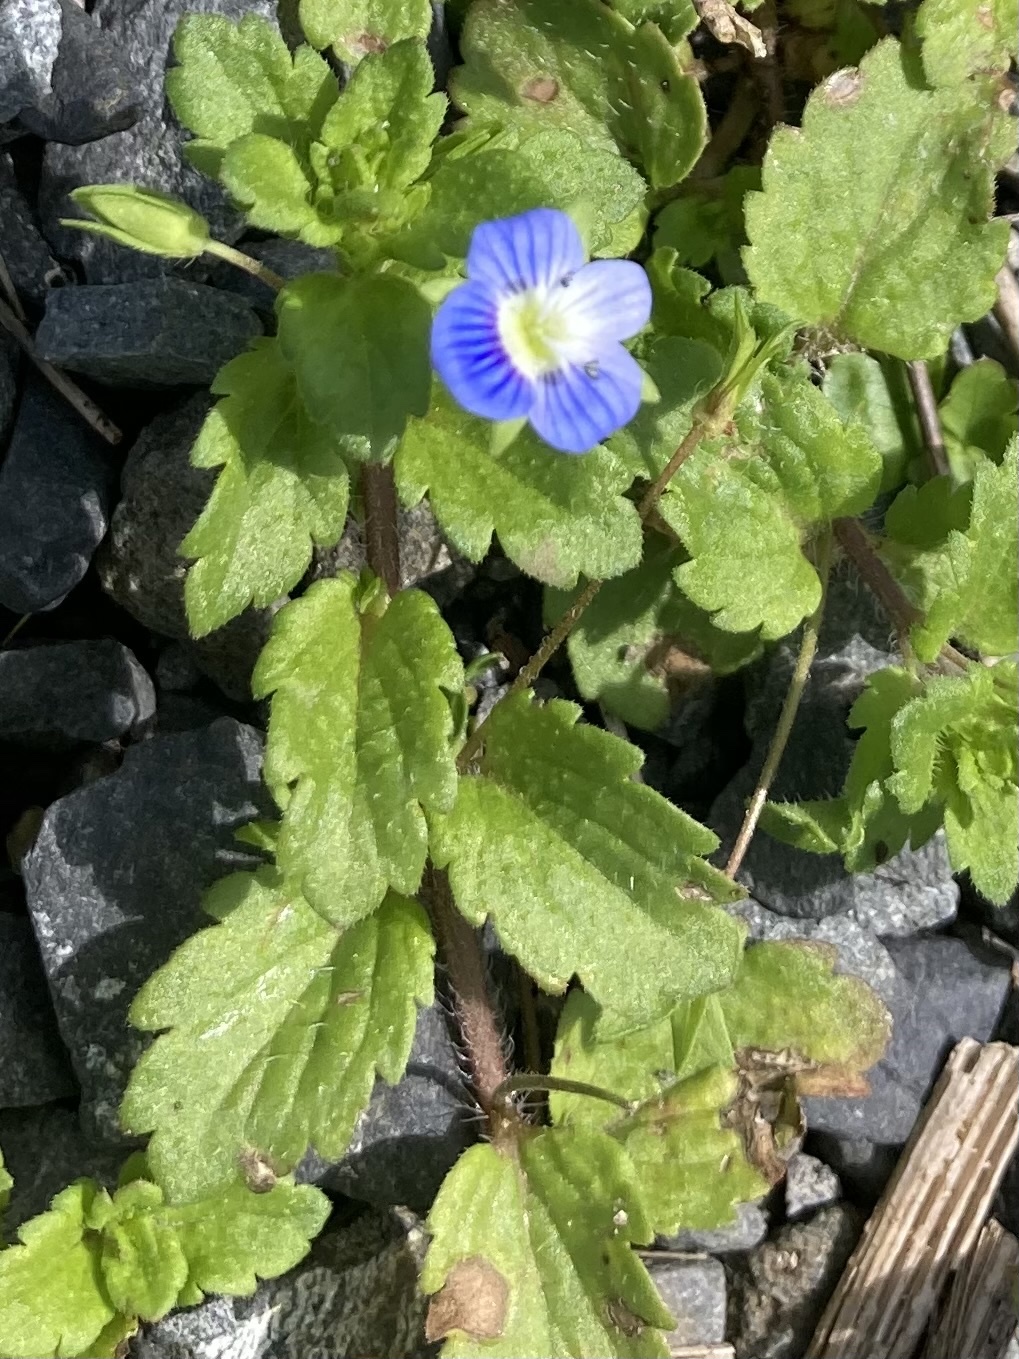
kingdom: Plantae
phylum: Tracheophyta
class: Magnoliopsida
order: Lamiales
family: Plantaginaceae
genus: Veronica
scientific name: Veronica persica
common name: Common field-speedwell
